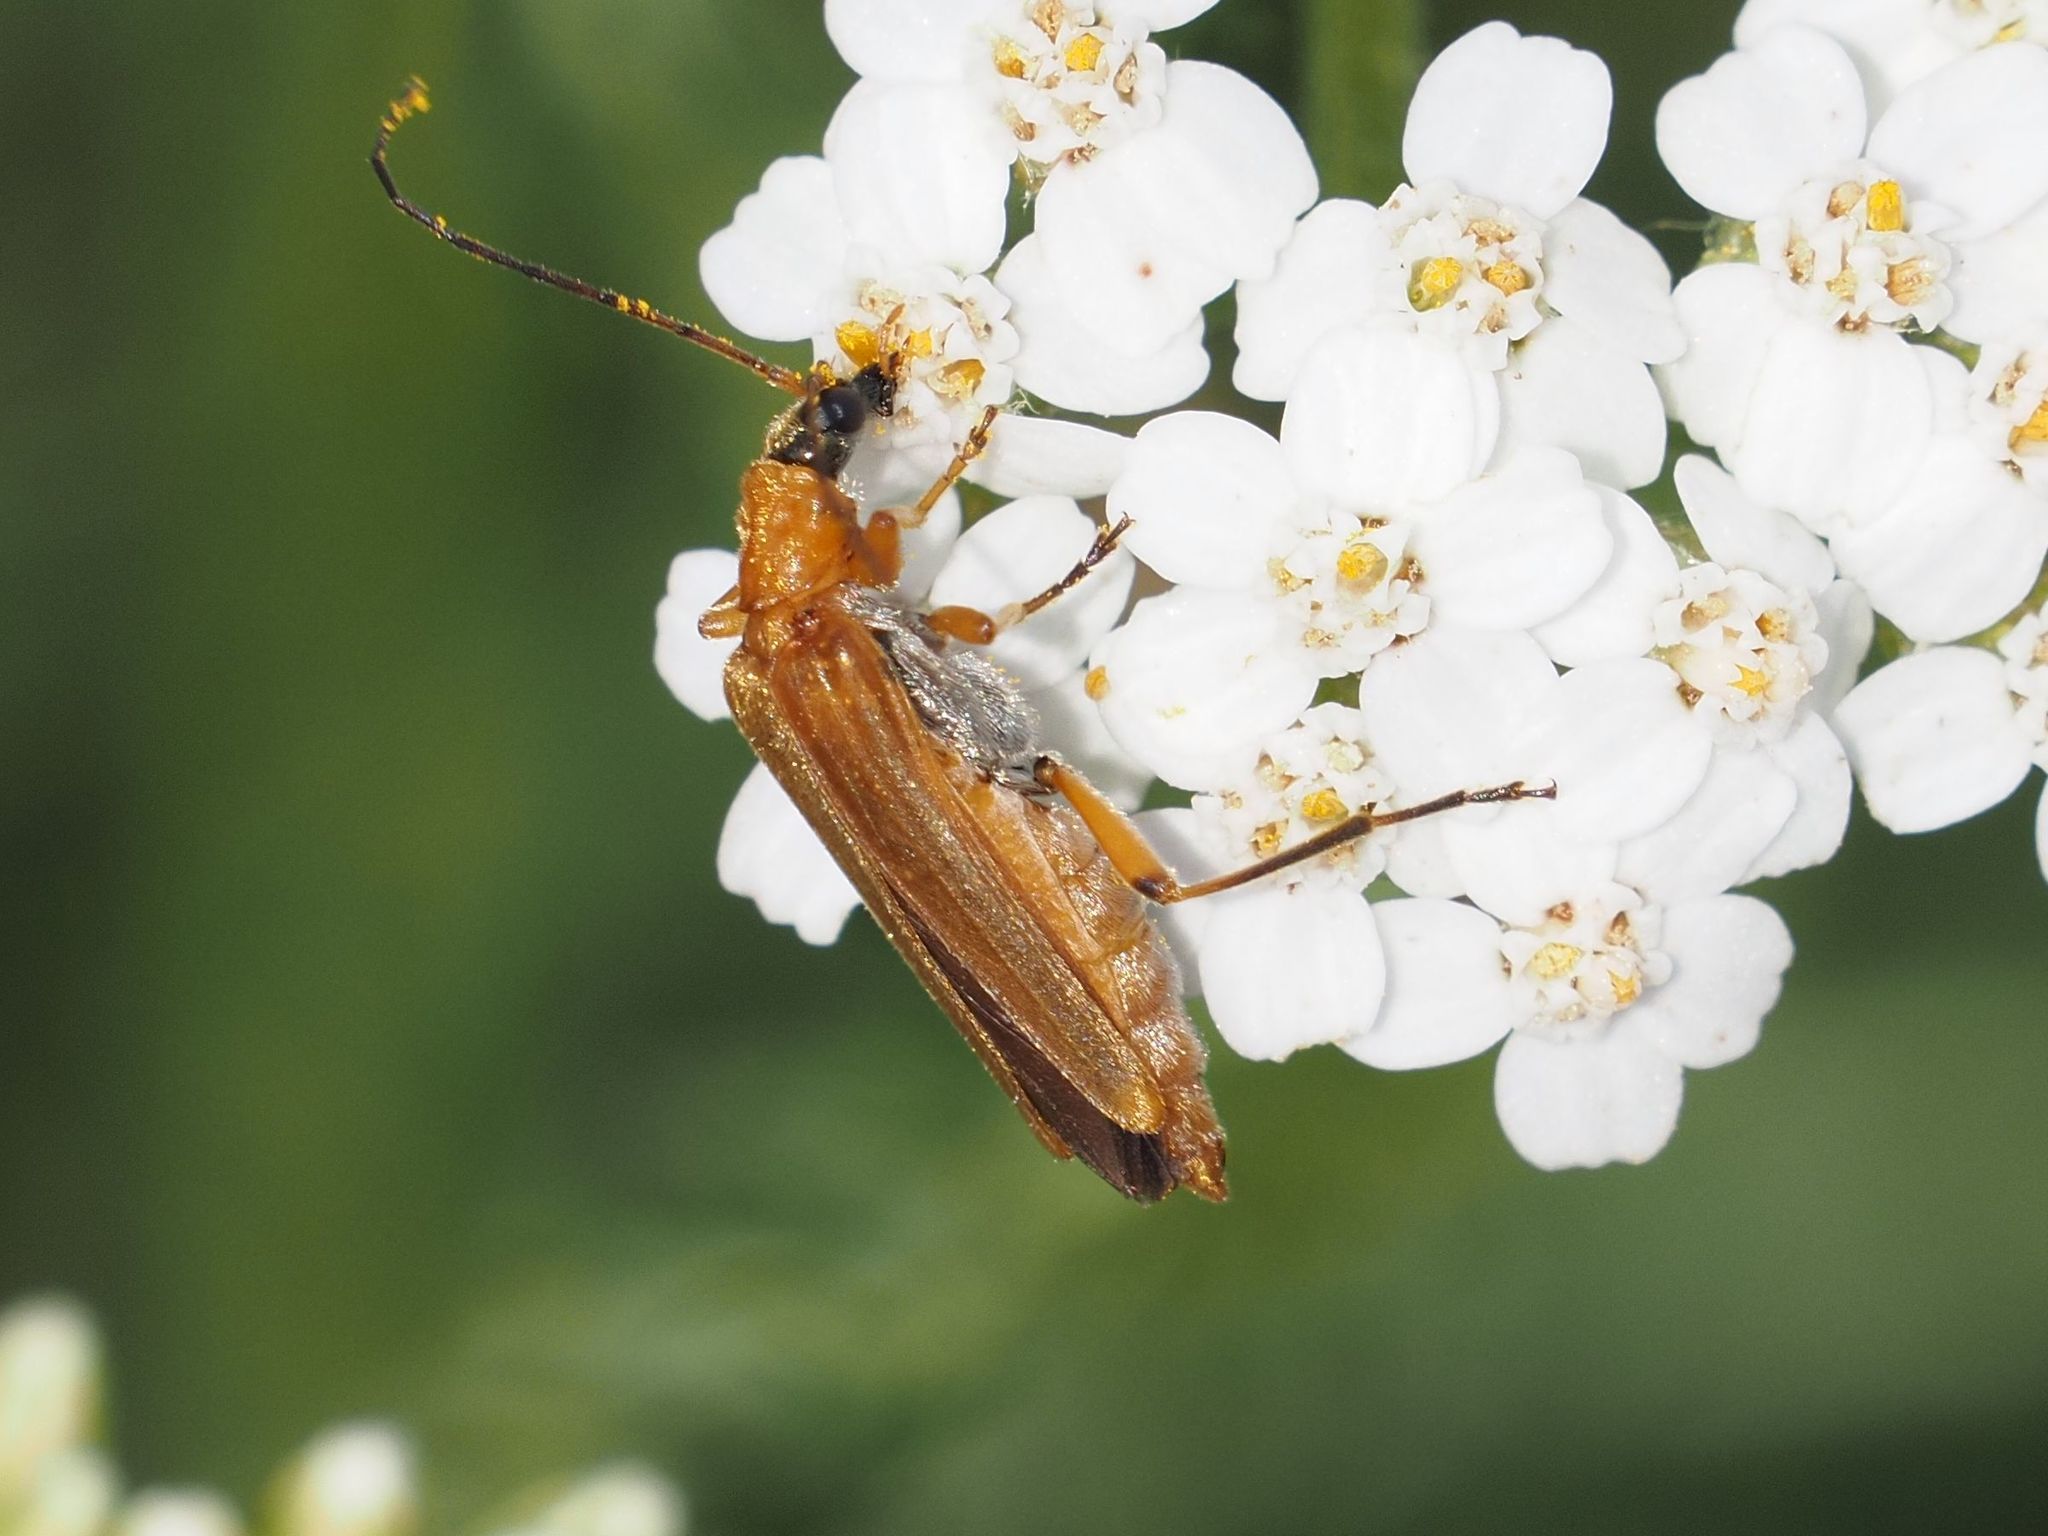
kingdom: Animalia
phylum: Arthropoda
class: Insecta
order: Coleoptera
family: Oedemeridae
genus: Oedemera
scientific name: Oedemera podagrariae
